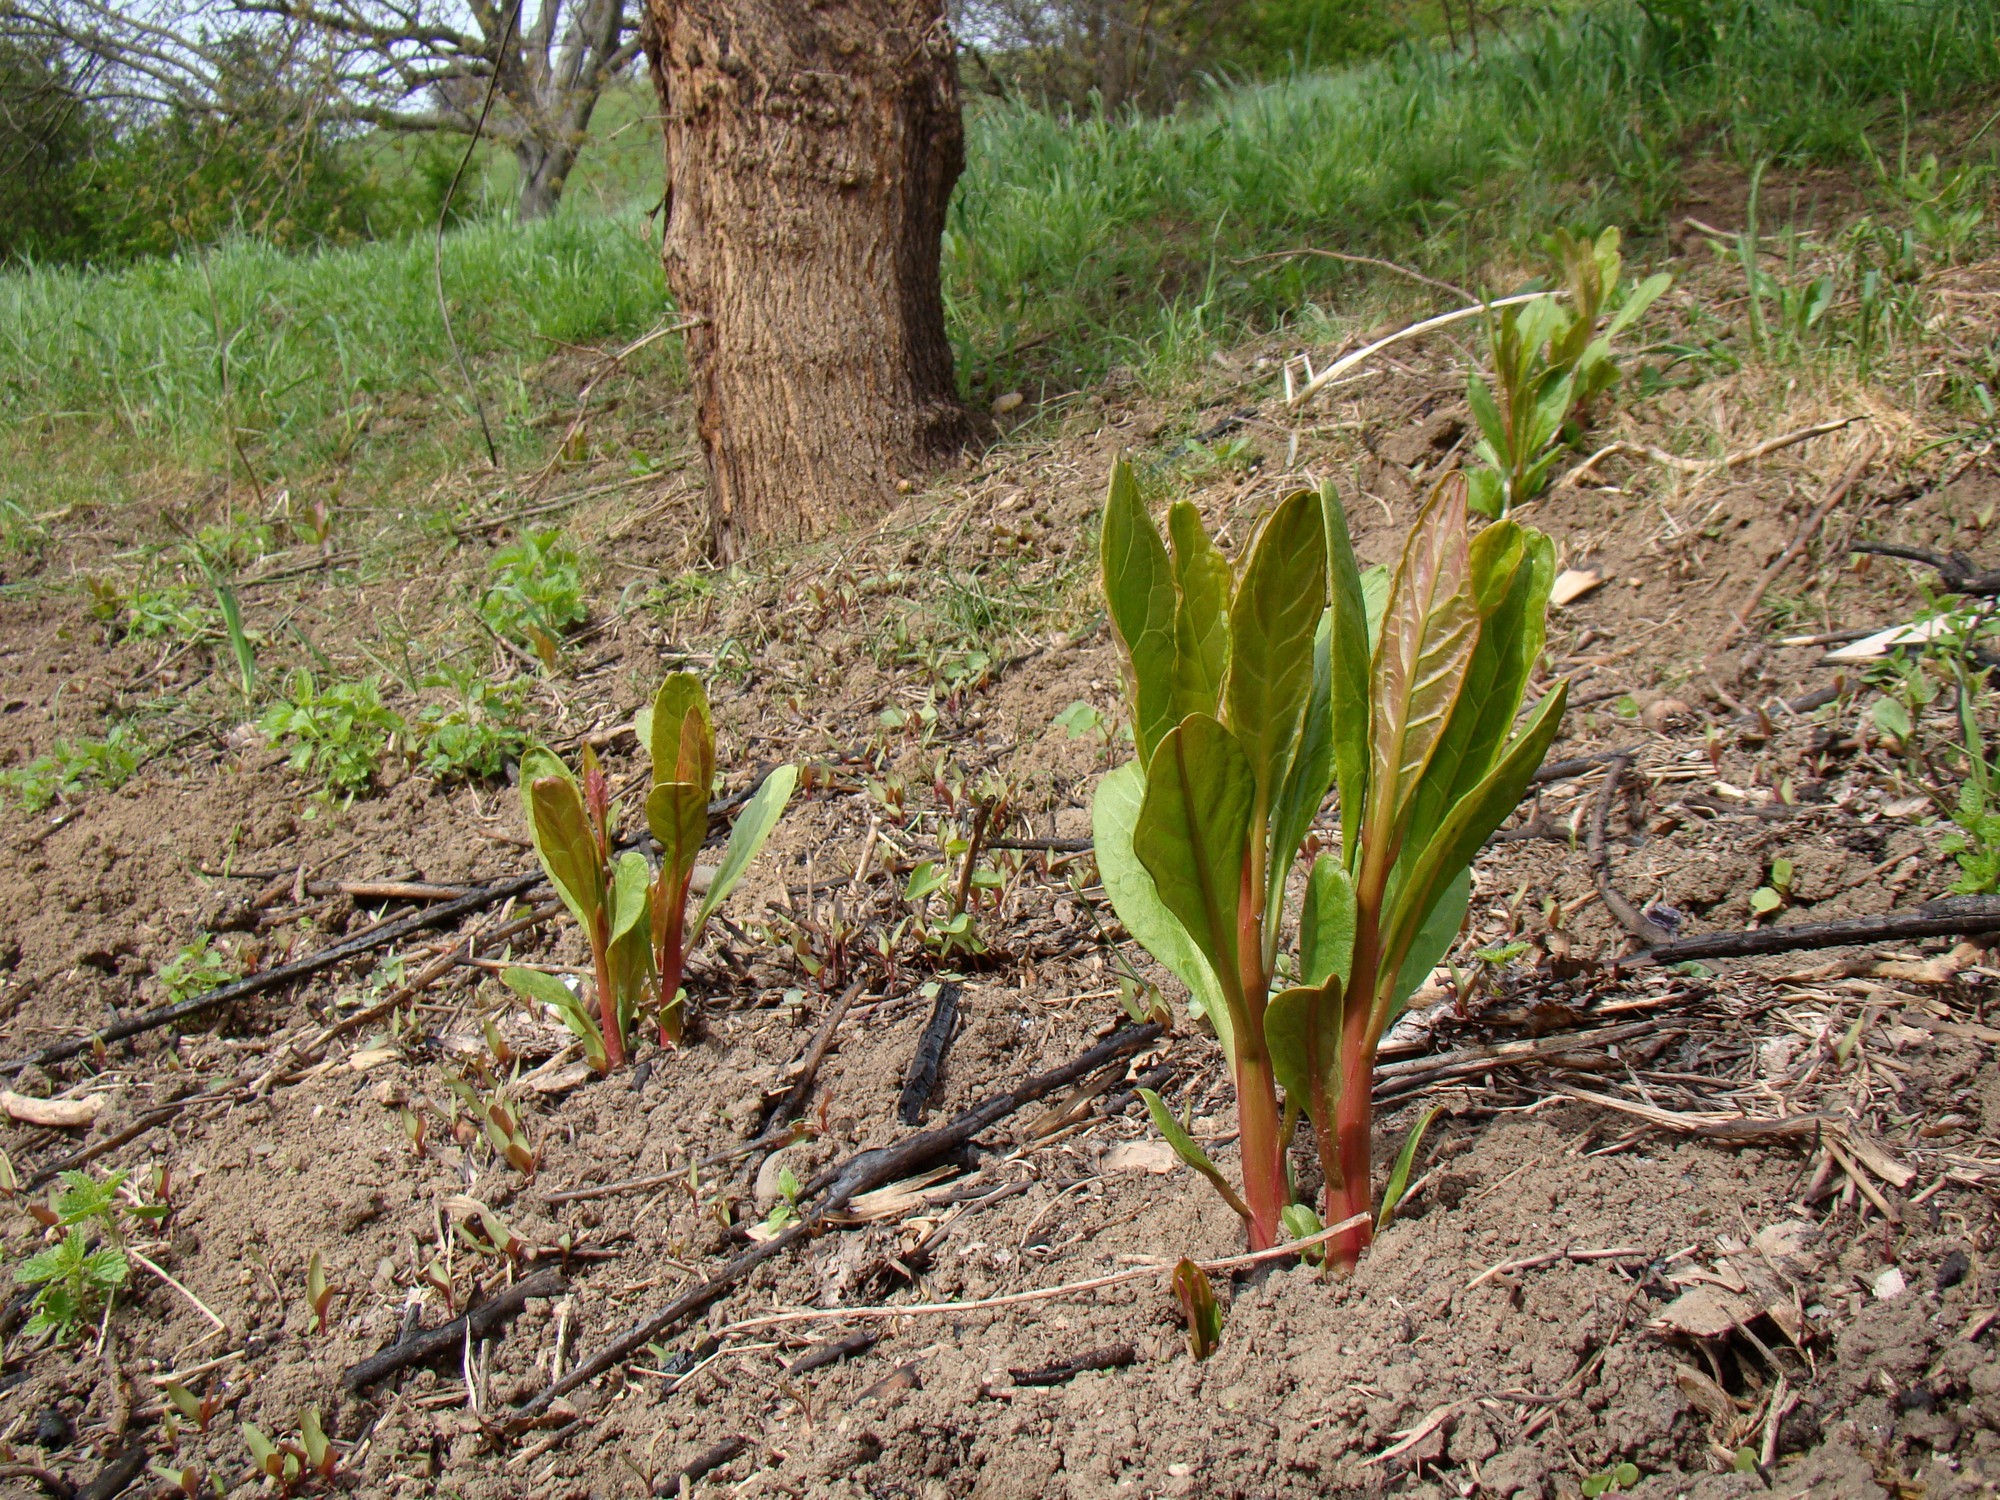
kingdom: Plantae
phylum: Tracheophyta
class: Magnoliopsida
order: Caryophyllales
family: Phytolaccaceae
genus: Phytolacca
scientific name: Phytolacca americana
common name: American pokeweed
